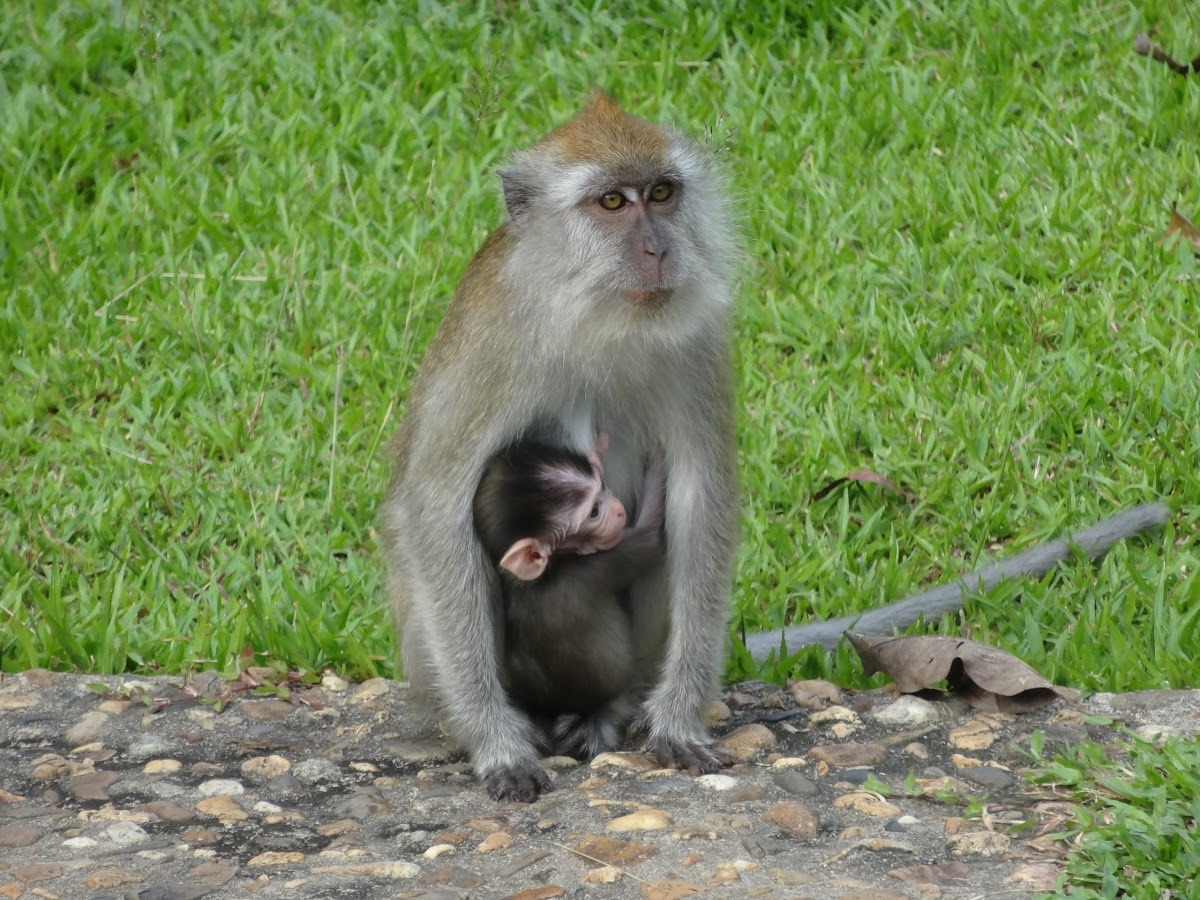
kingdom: Animalia
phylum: Chordata
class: Mammalia
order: Primates
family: Cercopithecidae
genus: Macaca
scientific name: Macaca fascicularis
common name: Crab-eating macaque
